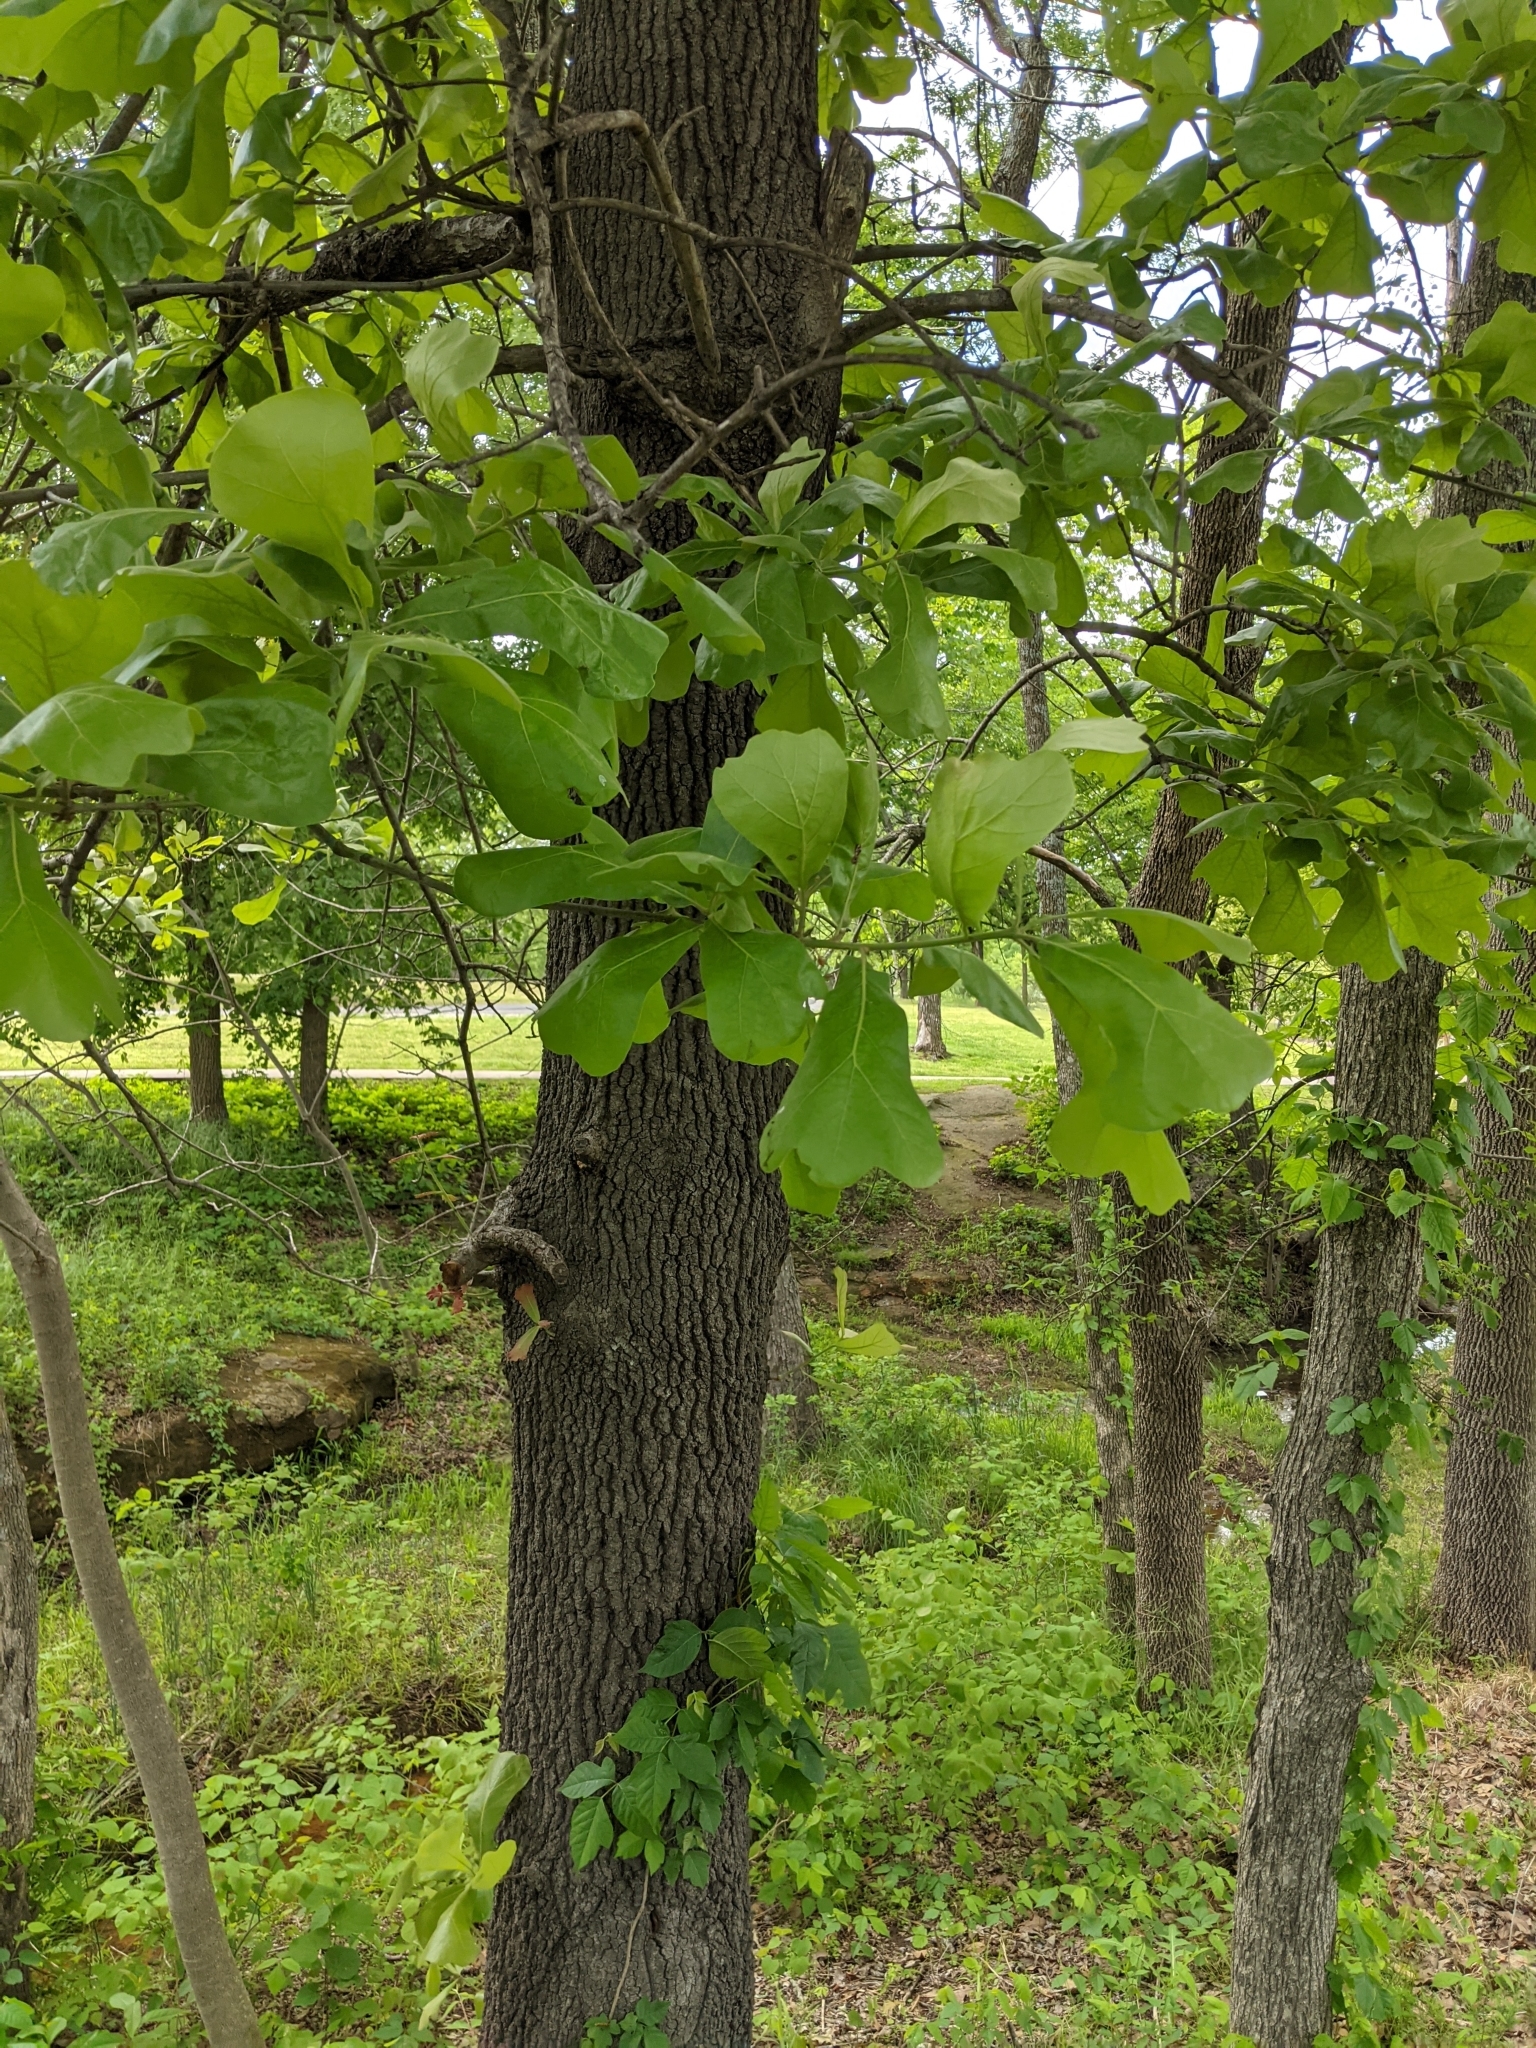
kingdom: Plantae
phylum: Tracheophyta
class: Magnoliopsida
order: Fagales
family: Fagaceae
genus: Quercus
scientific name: Quercus marilandica
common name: Blackjack oak
